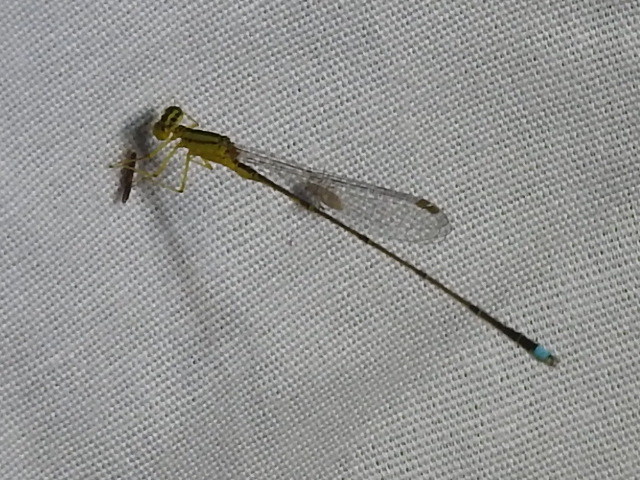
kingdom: Animalia
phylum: Arthropoda
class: Insecta
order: Odonata
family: Coenagrionidae
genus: Enallagma
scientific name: Enallagma vesperum
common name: Vesper bluet
